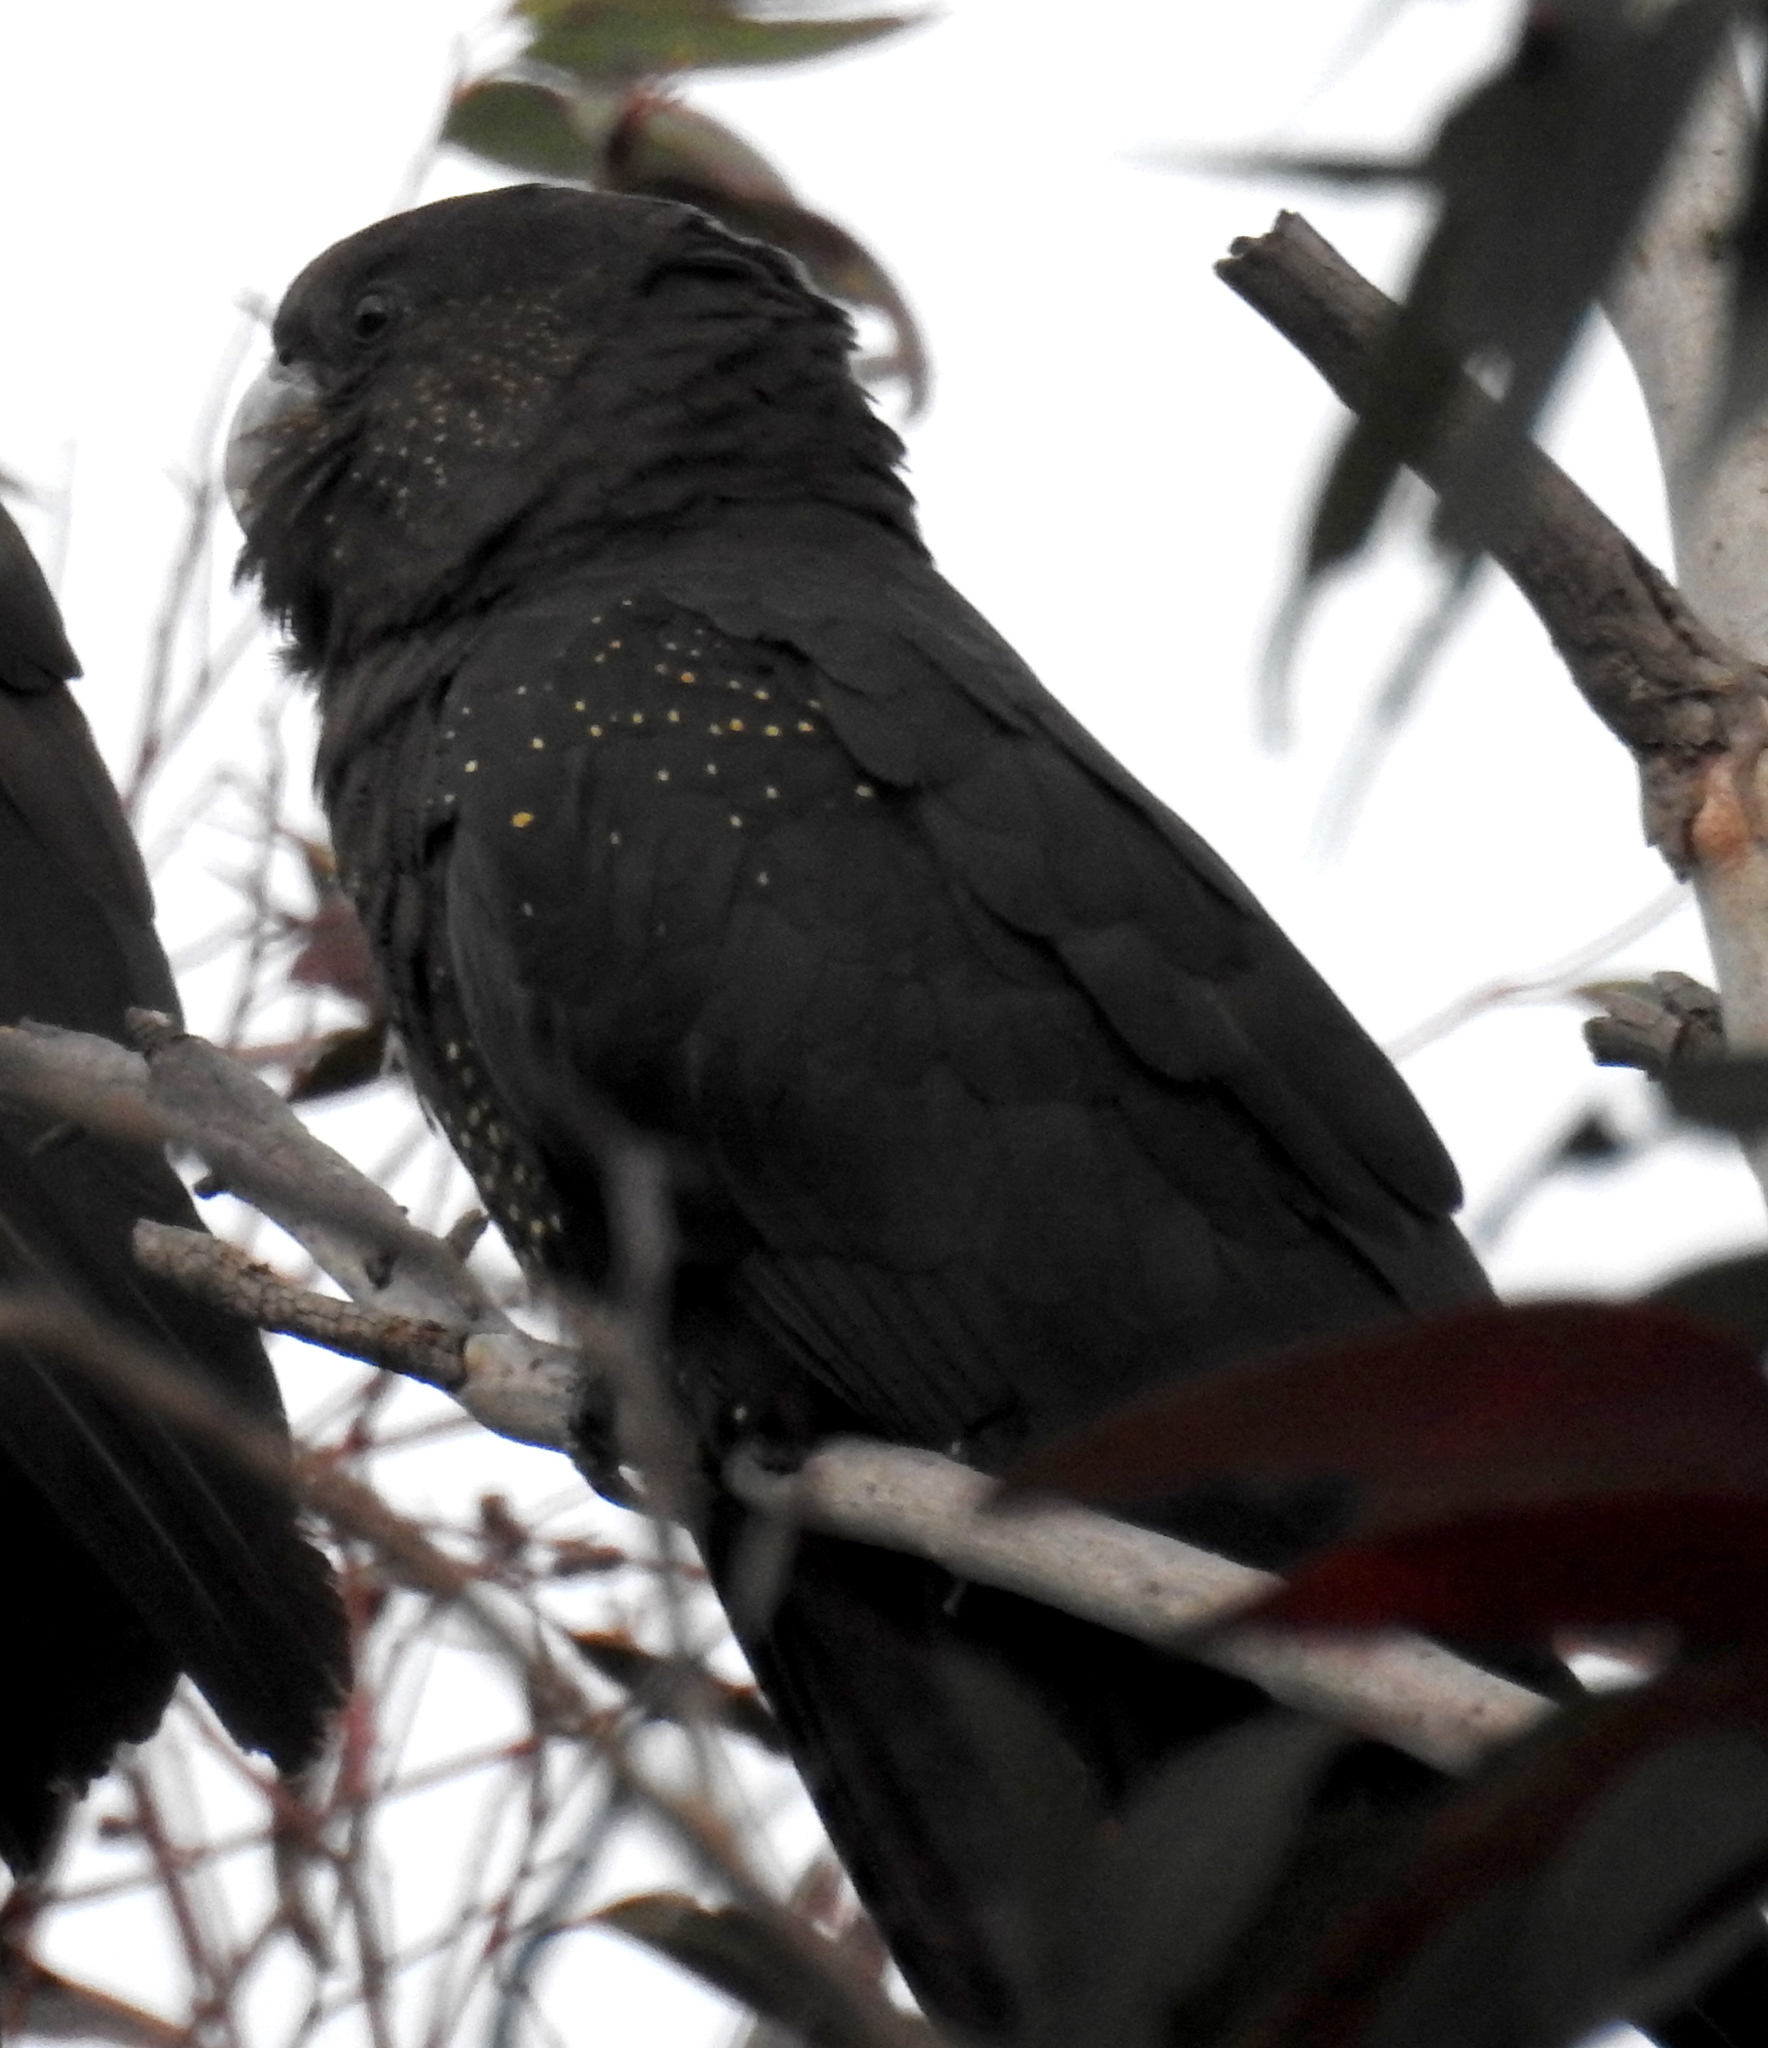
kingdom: Animalia
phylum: Chordata
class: Aves
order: Psittaciformes
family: Psittacidae
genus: Calyptorhynchus
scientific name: Calyptorhynchus lathami
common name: Glossy black cockatoo
